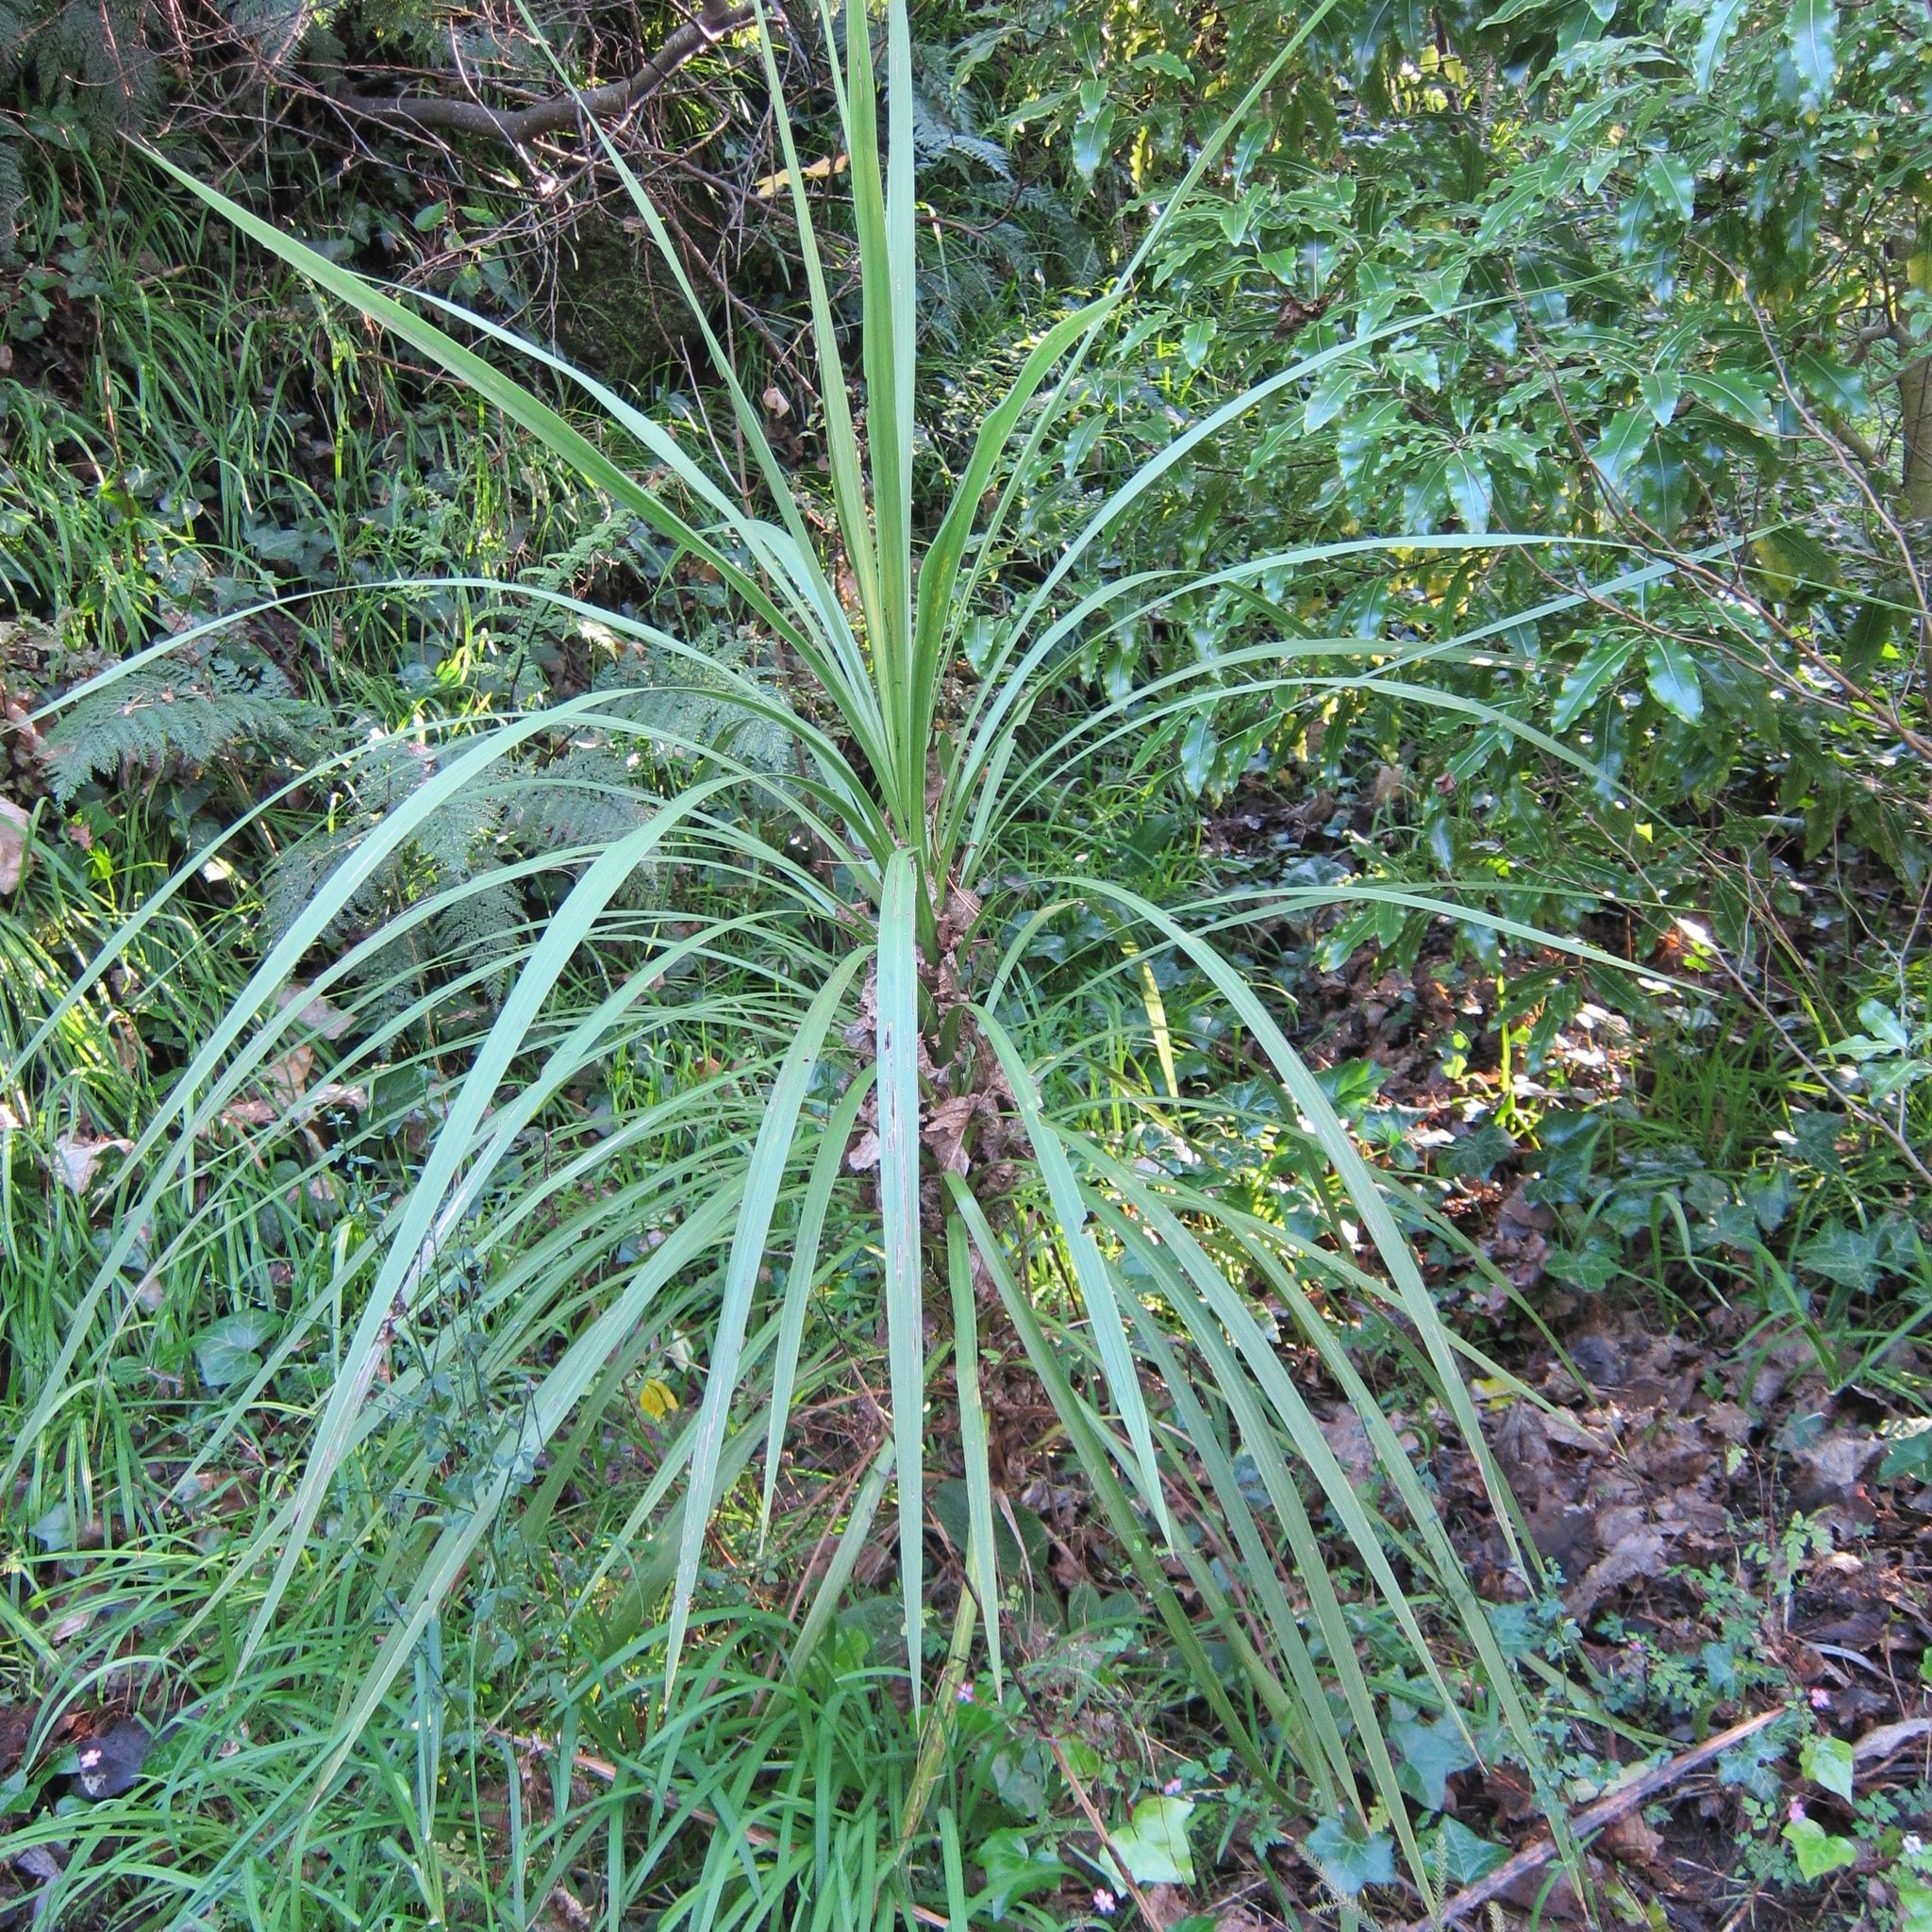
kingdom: Plantae
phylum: Tracheophyta
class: Liliopsida
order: Asparagales
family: Asparagaceae
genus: Cordyline
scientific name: Cordyline australis
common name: Cabbage-palm
